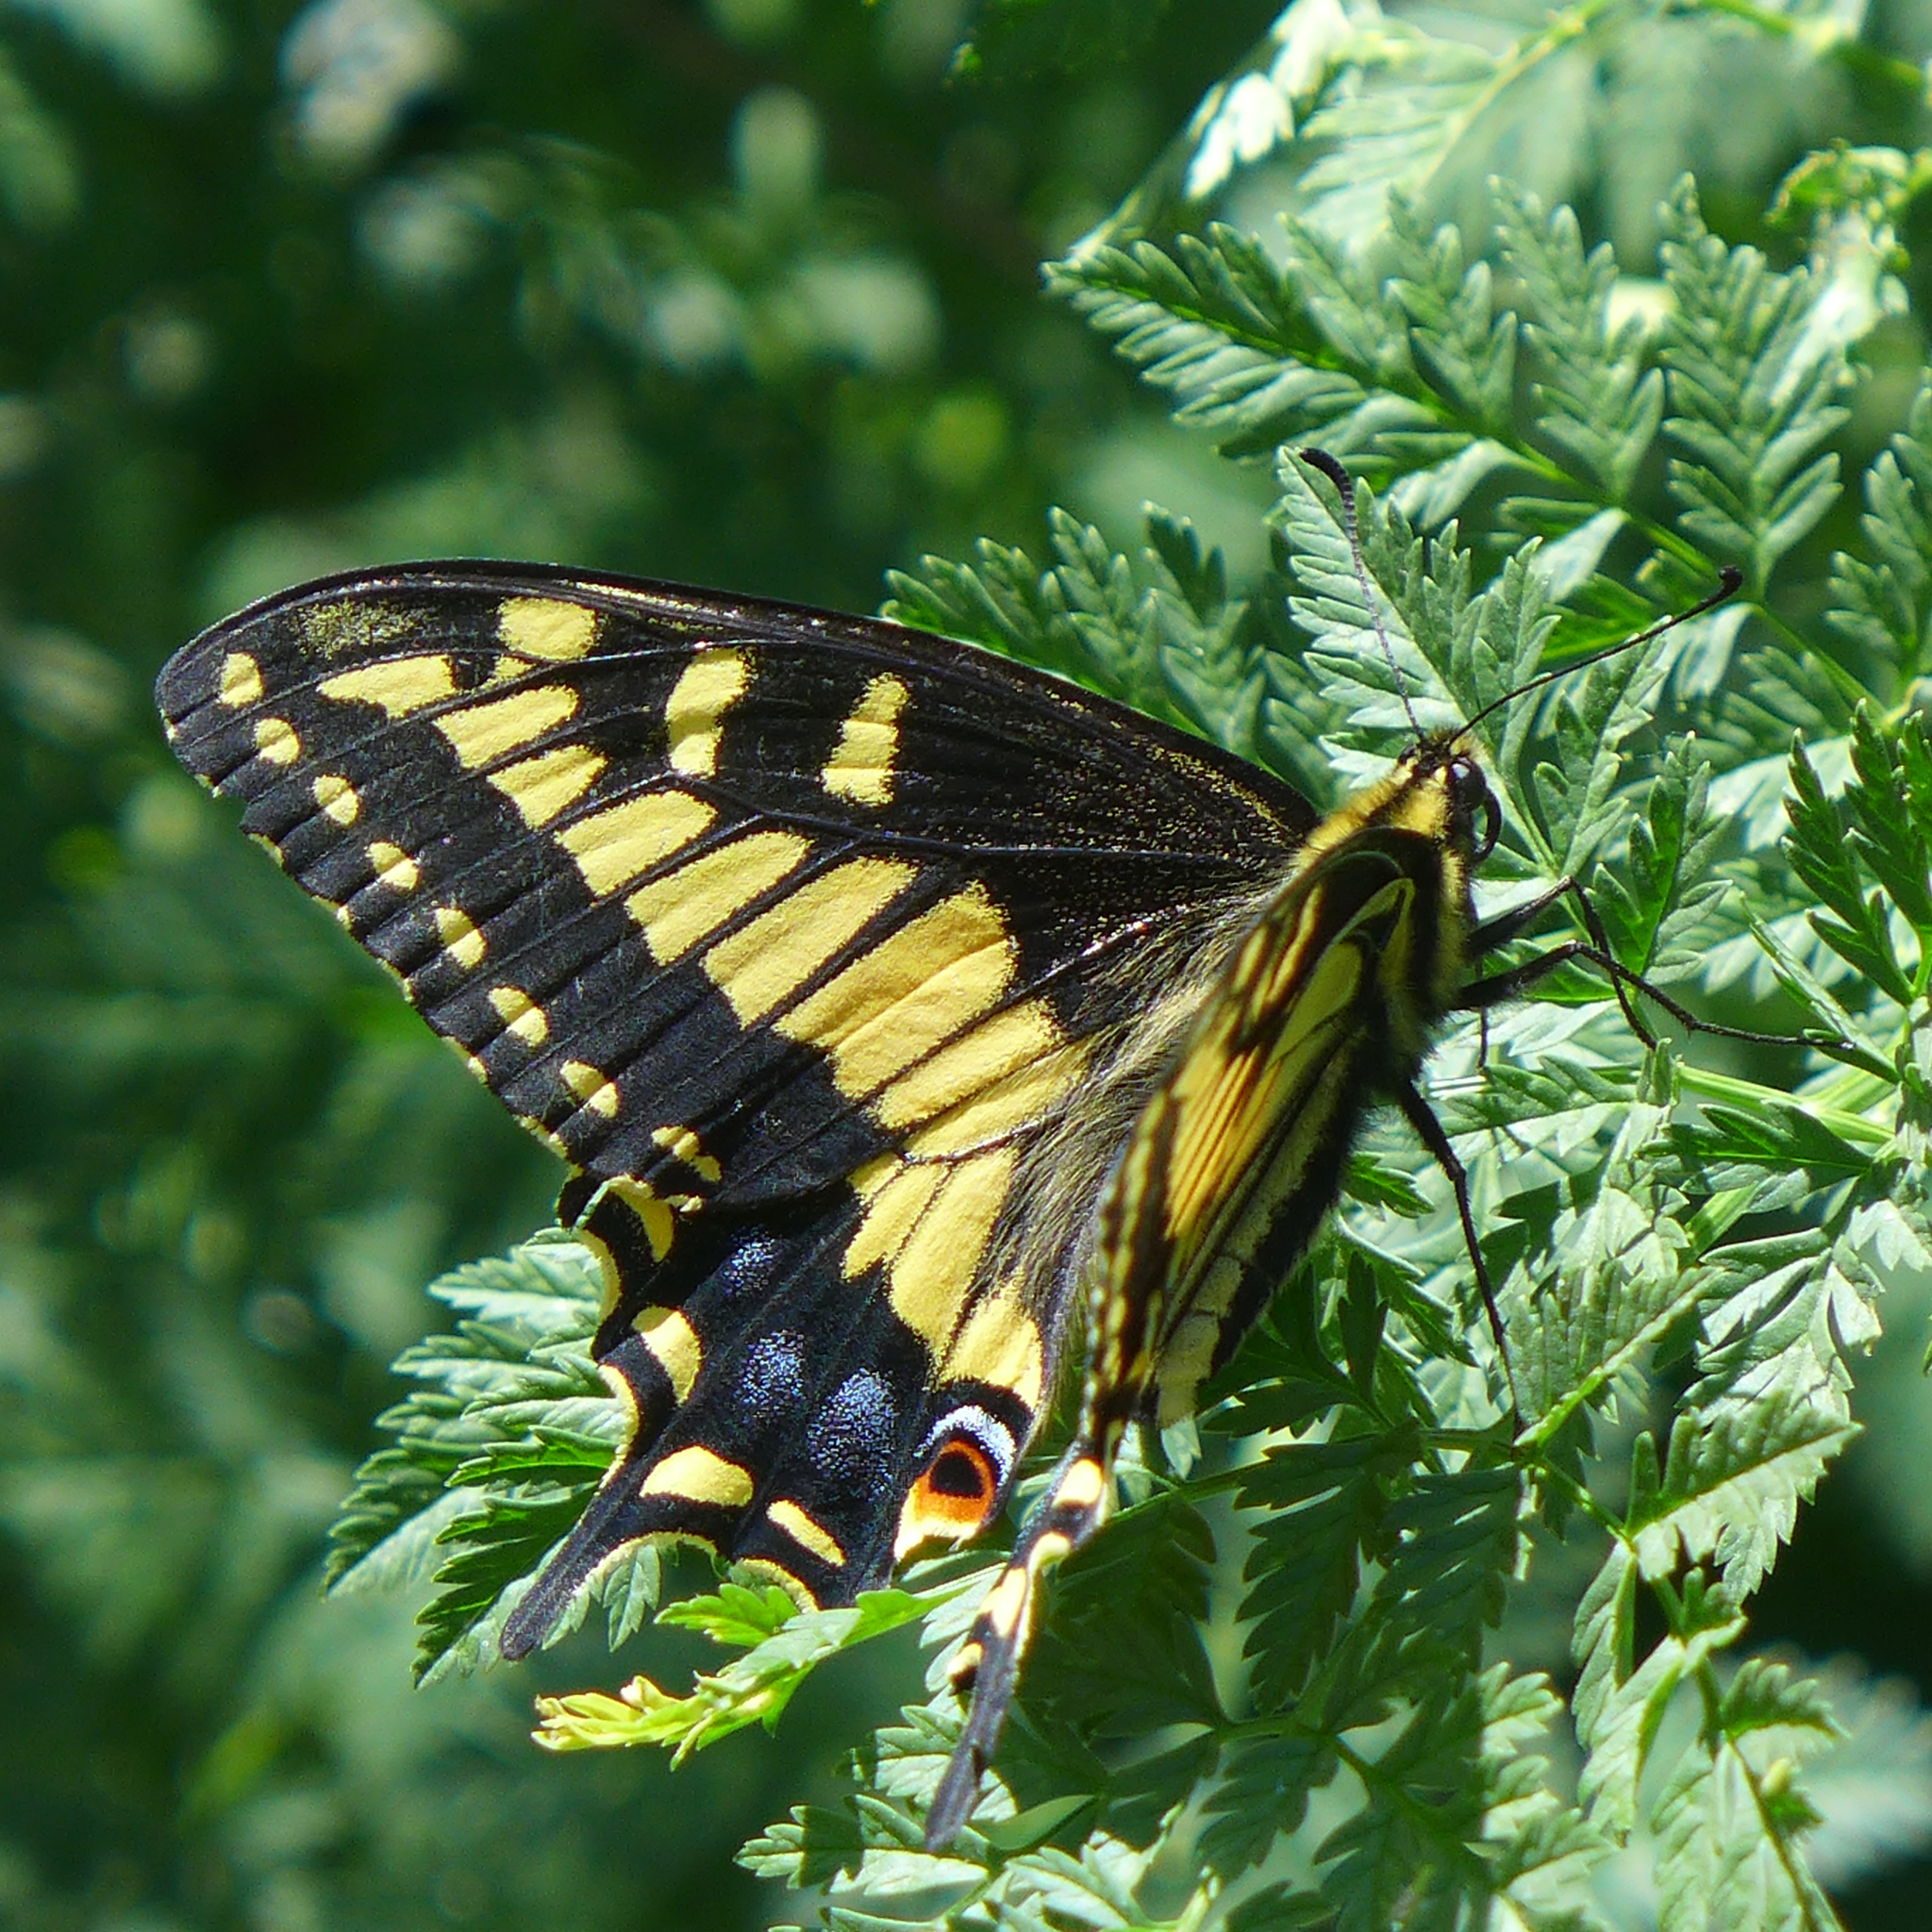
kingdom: Animalia
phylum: Arthropoda
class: Insecta
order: Lepidoptera
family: Papilionidae
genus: Papilio
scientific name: Papilio zelicaon
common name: Anise swallowtail
